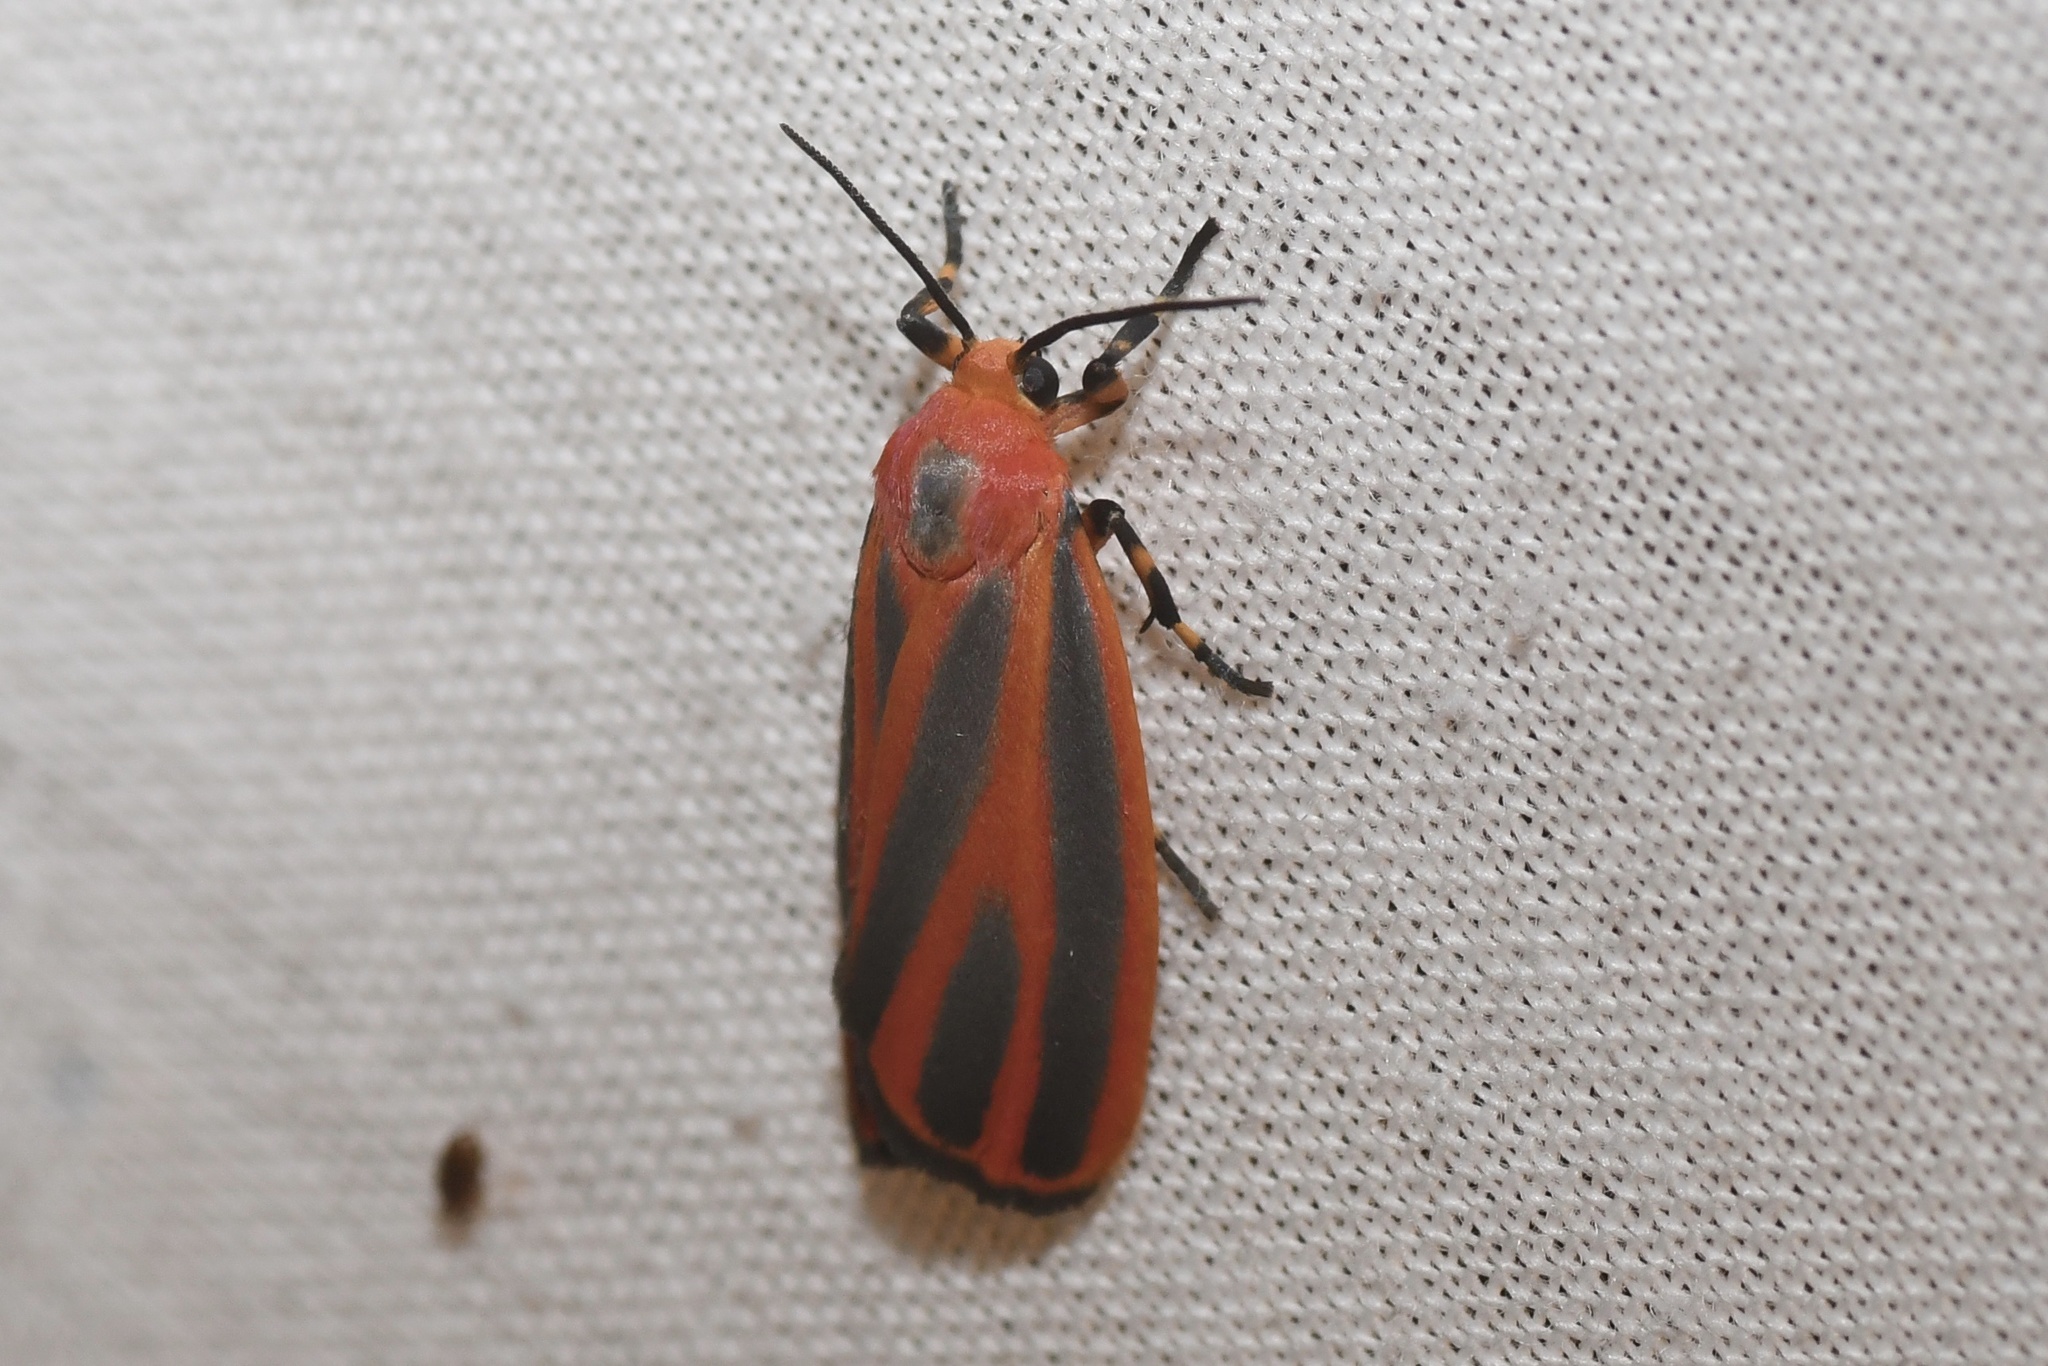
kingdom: Animalia
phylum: Arthropoda
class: Insecta
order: Lepidoptera
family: Erebidae
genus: Hypoprepia
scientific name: Hypoprepia miniata
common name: Scarlet-winged lichen moth
